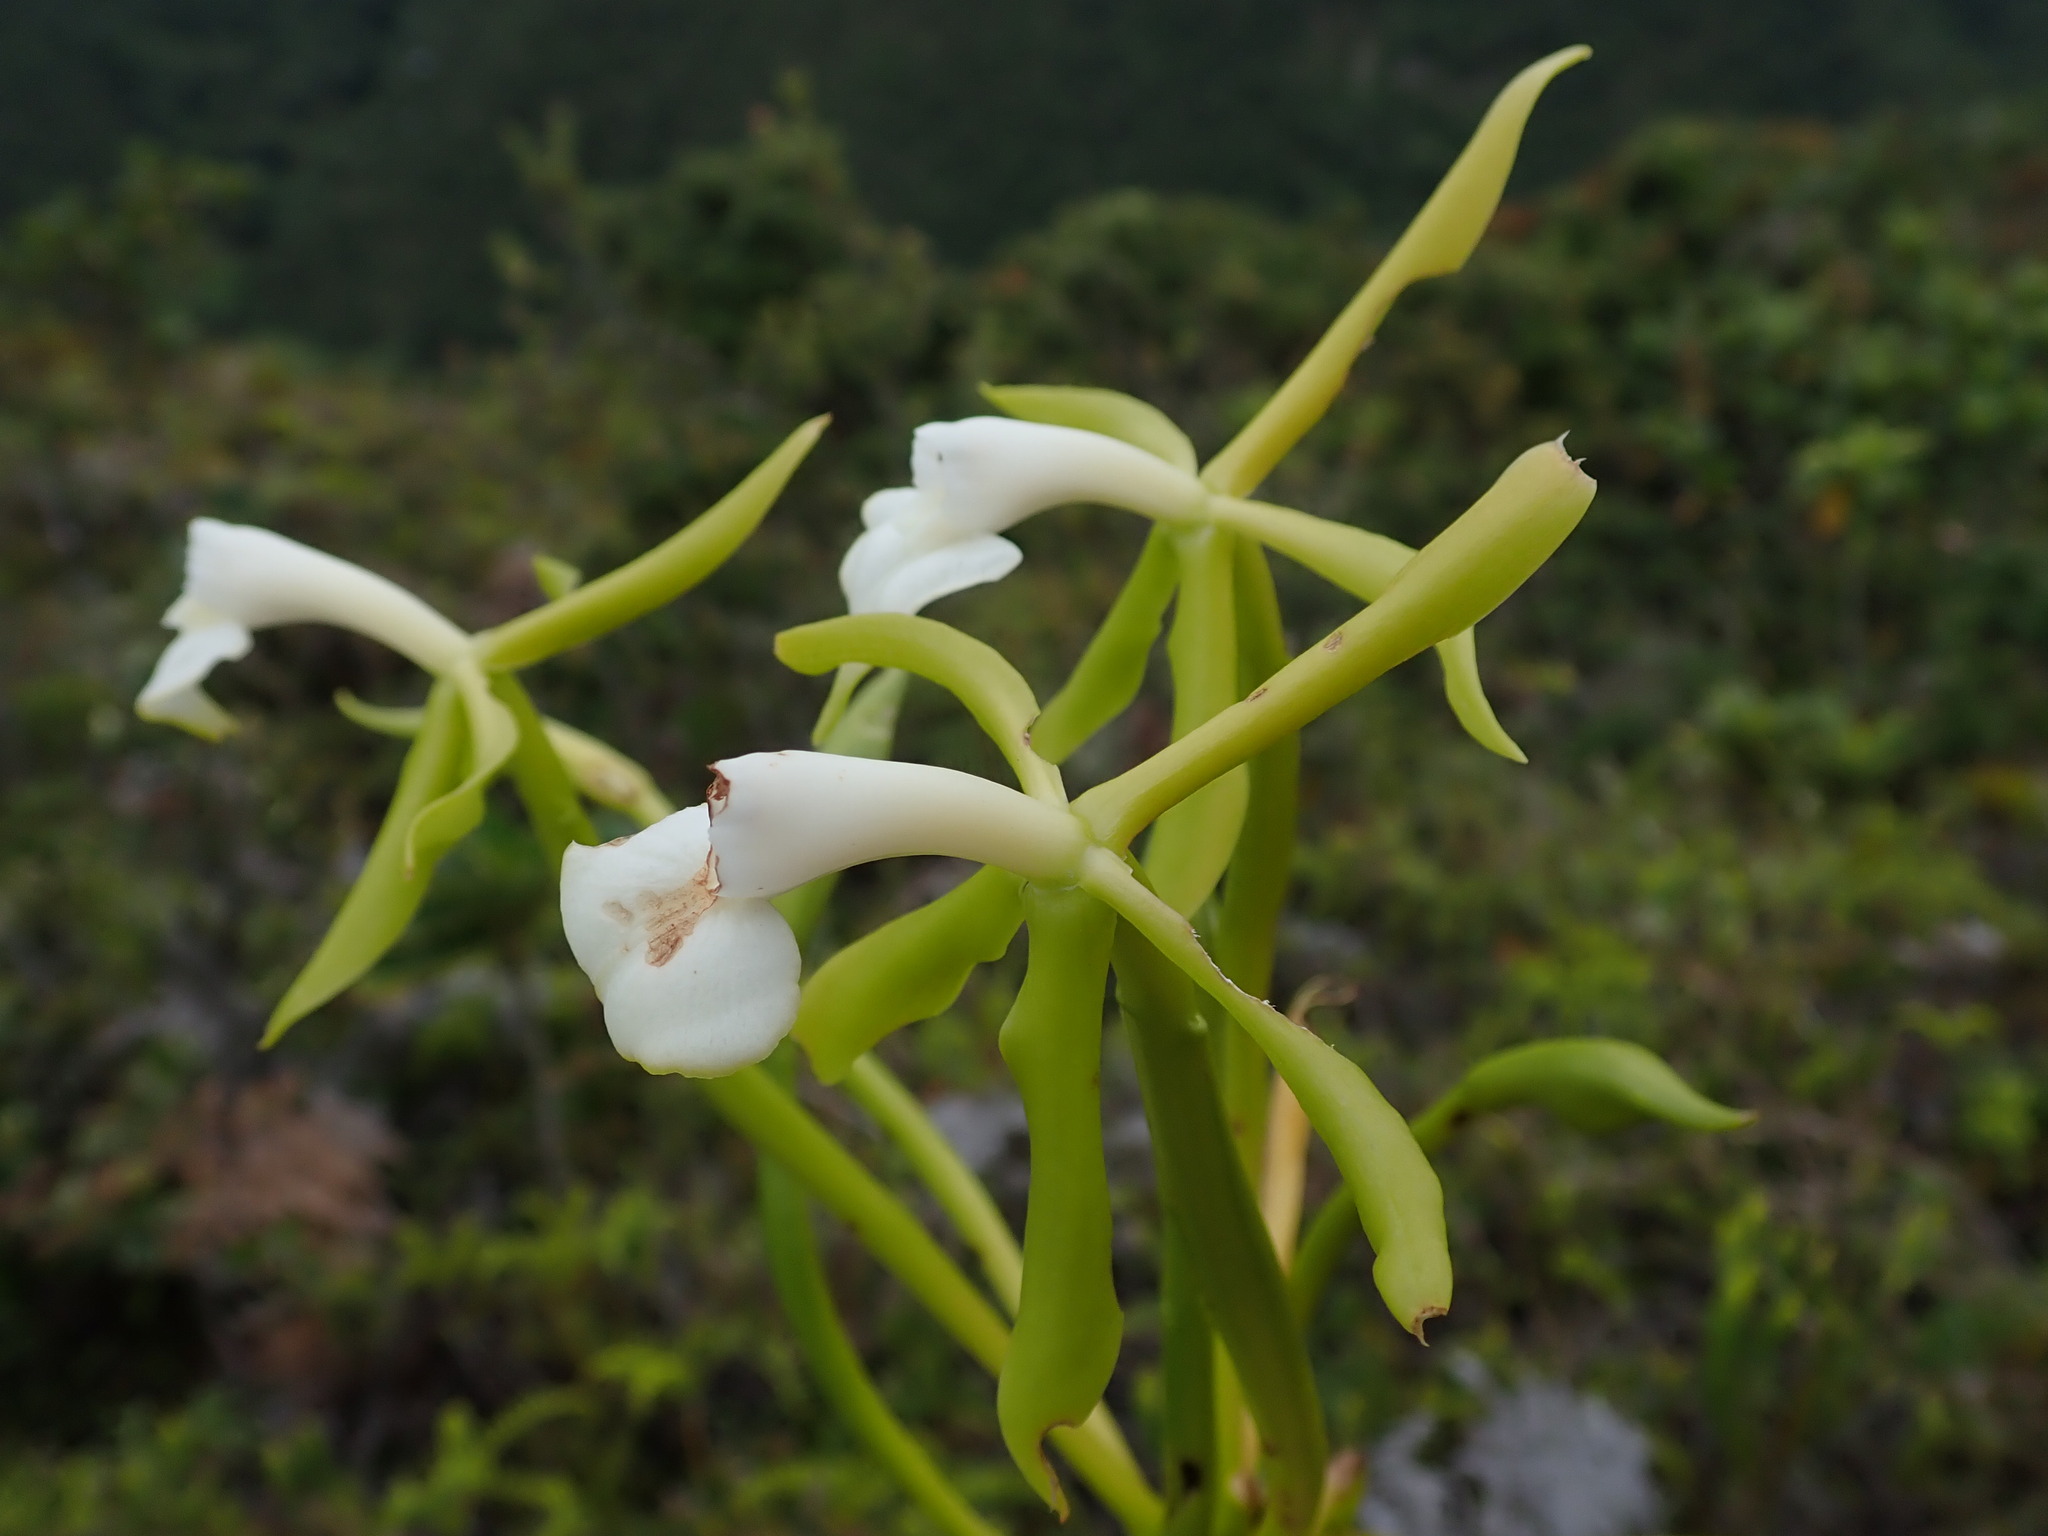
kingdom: Plantae
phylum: Tracheophyta
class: Liliopsida
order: Asparagales
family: Orchidaceae
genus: Epidendrum
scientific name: Epidendrum lacustre
